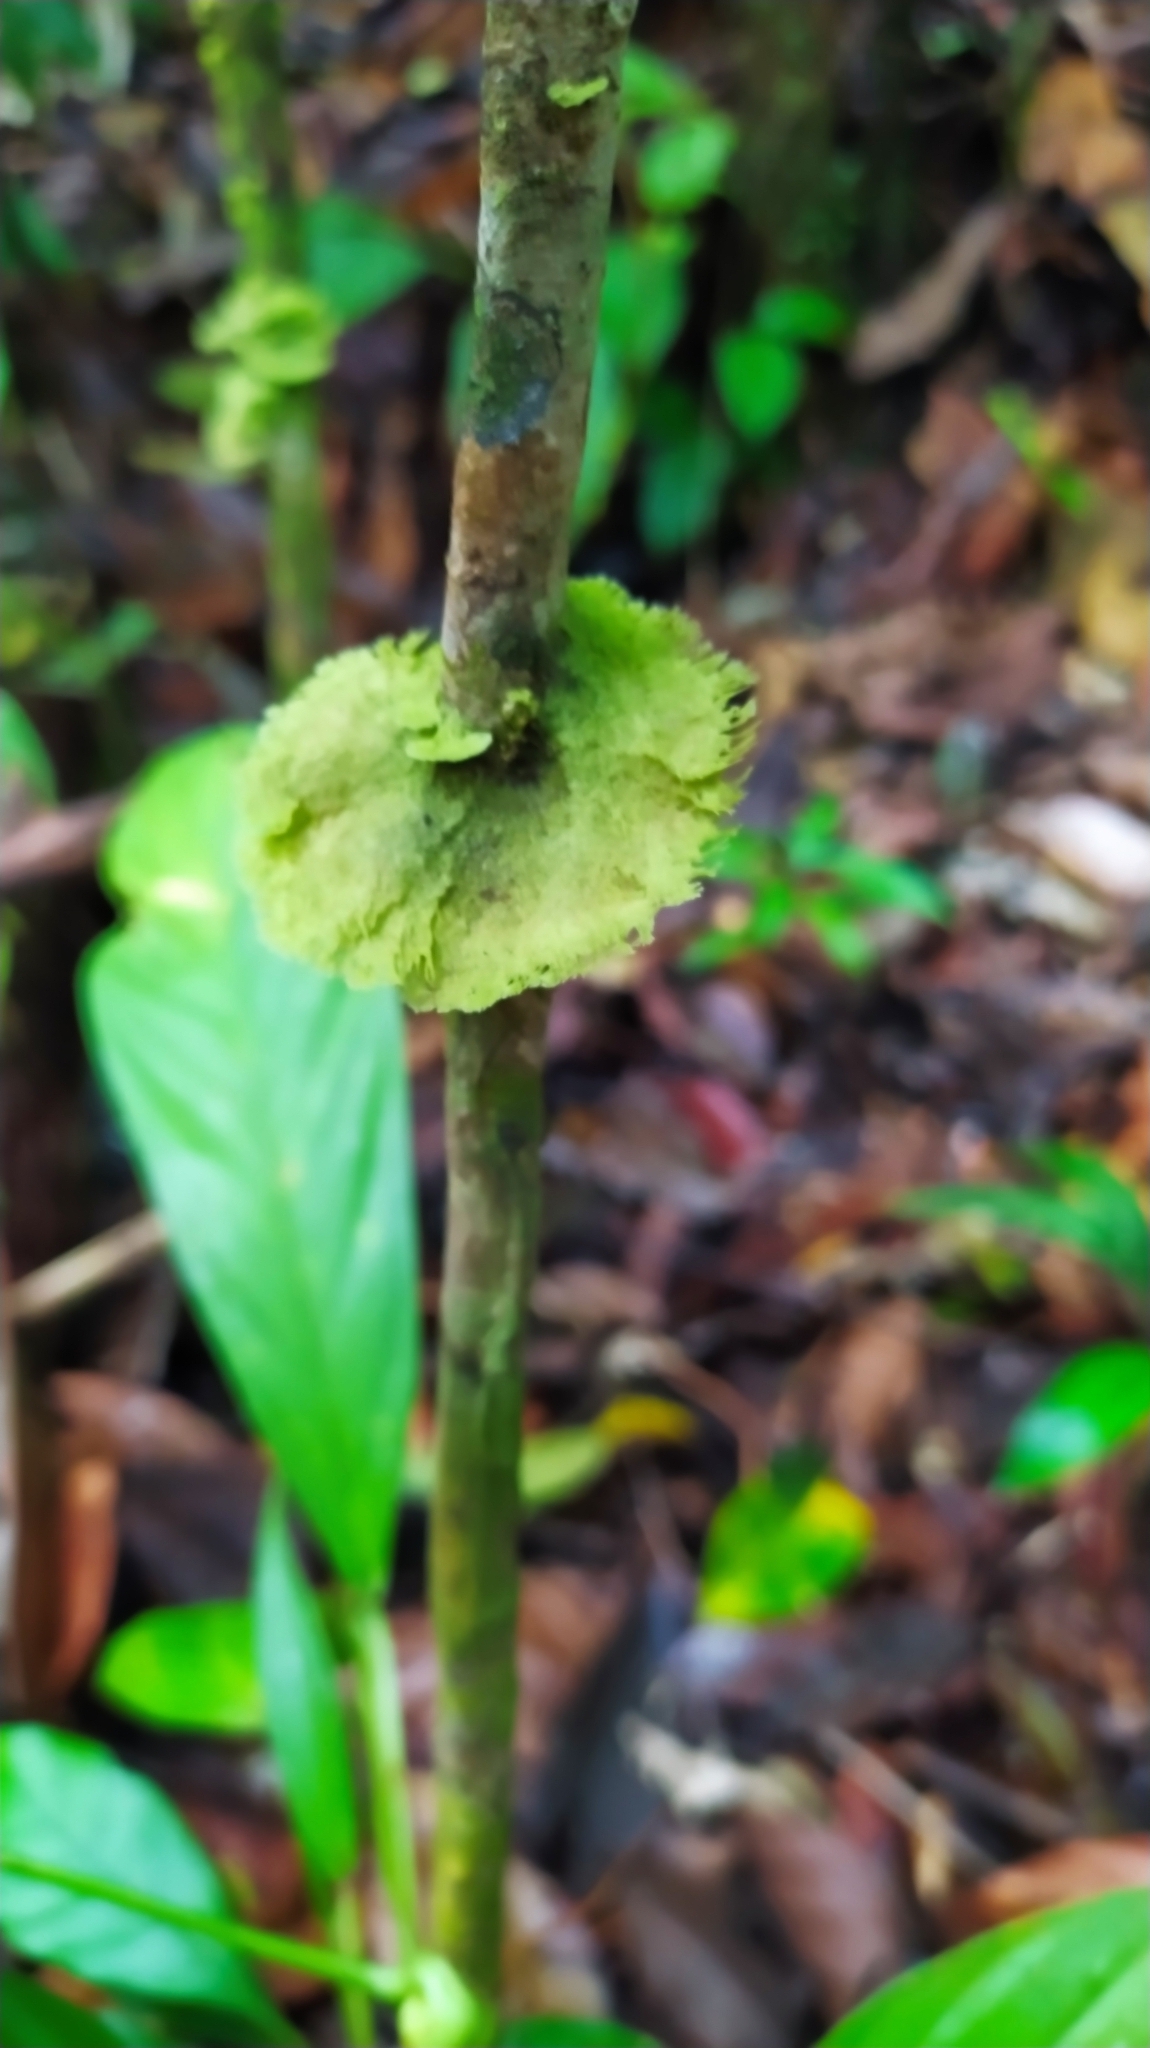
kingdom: Fungi
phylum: Ascomycota
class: Lecanoromycetes
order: Ostropales
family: Coenogoniaceae
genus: Coenogonium
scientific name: Coenogonium
